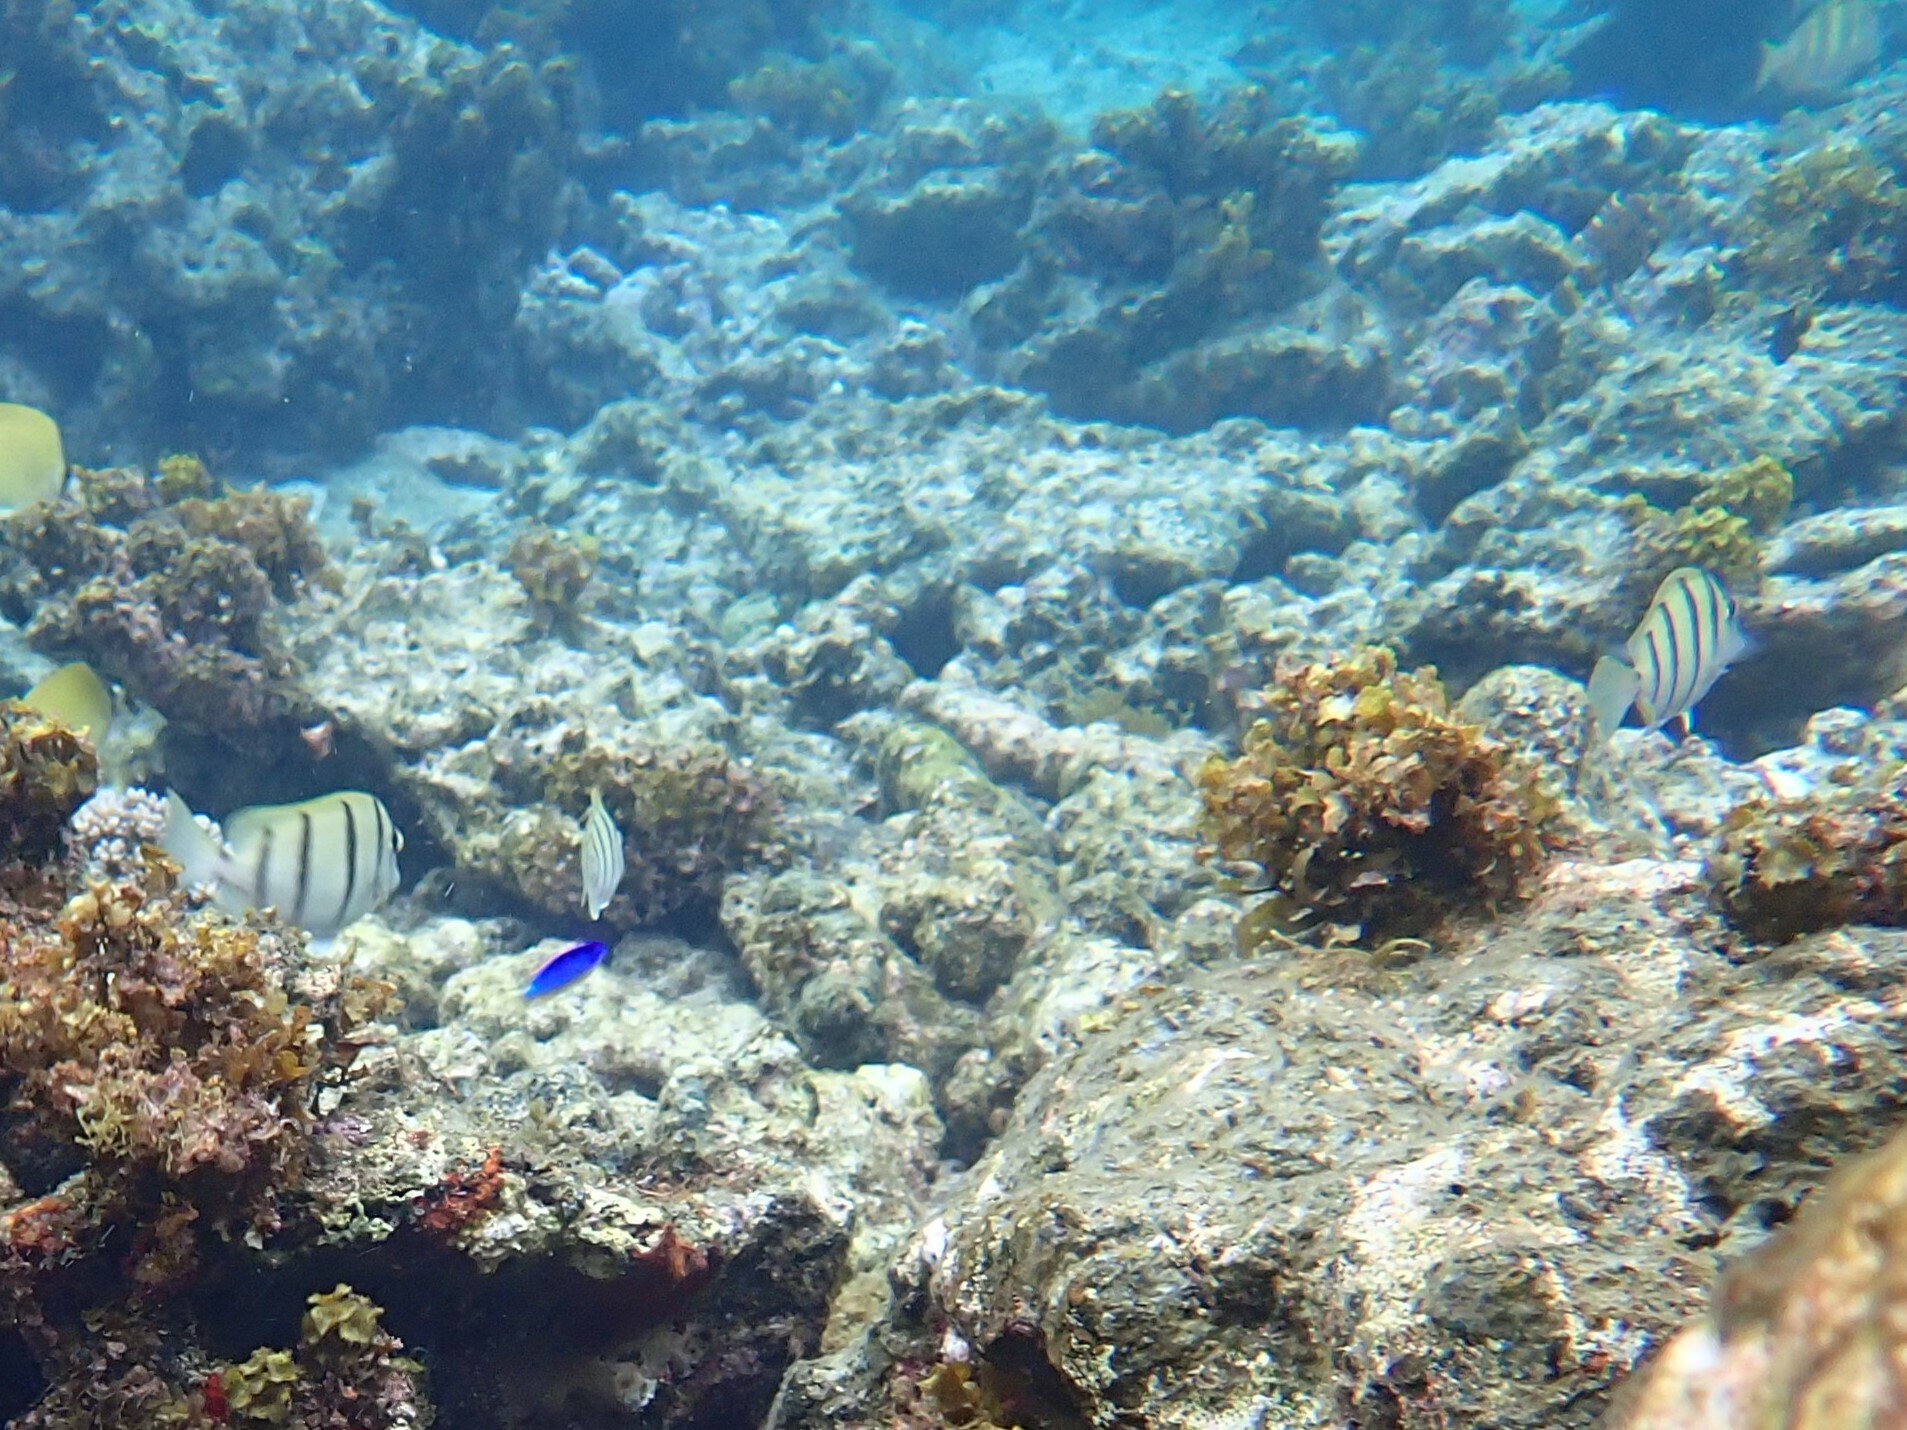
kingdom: Animalia
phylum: Chordata
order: Perciformes
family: Acanthuridae
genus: Acanthurus
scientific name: Acanthurus triostegus
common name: Convict surgeonfish
